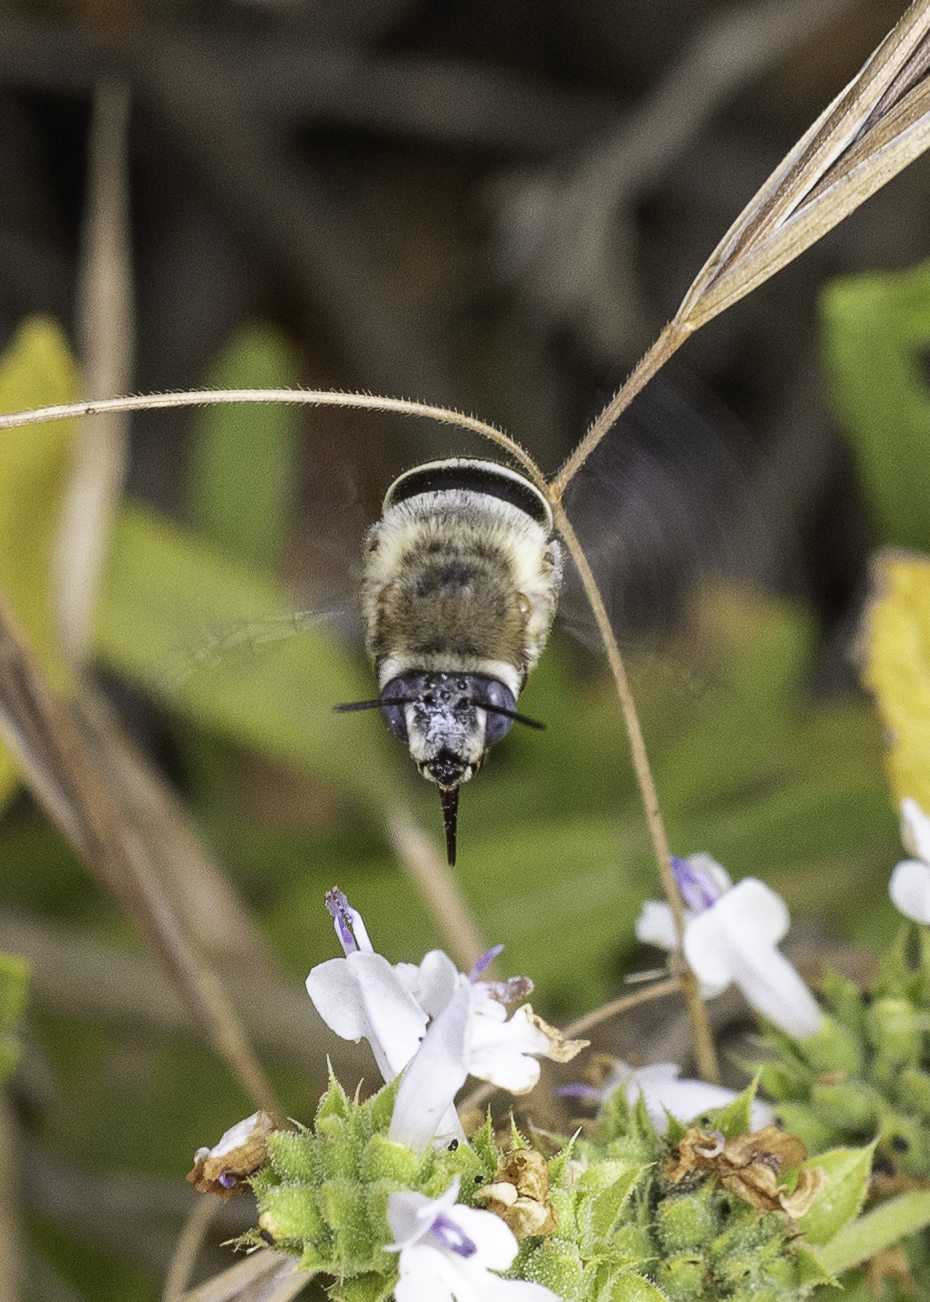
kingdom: Animalia
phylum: Arthropoda
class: Insecta
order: Hymenoptera
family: Apidae
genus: Anthophora
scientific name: Anthophora urbana
